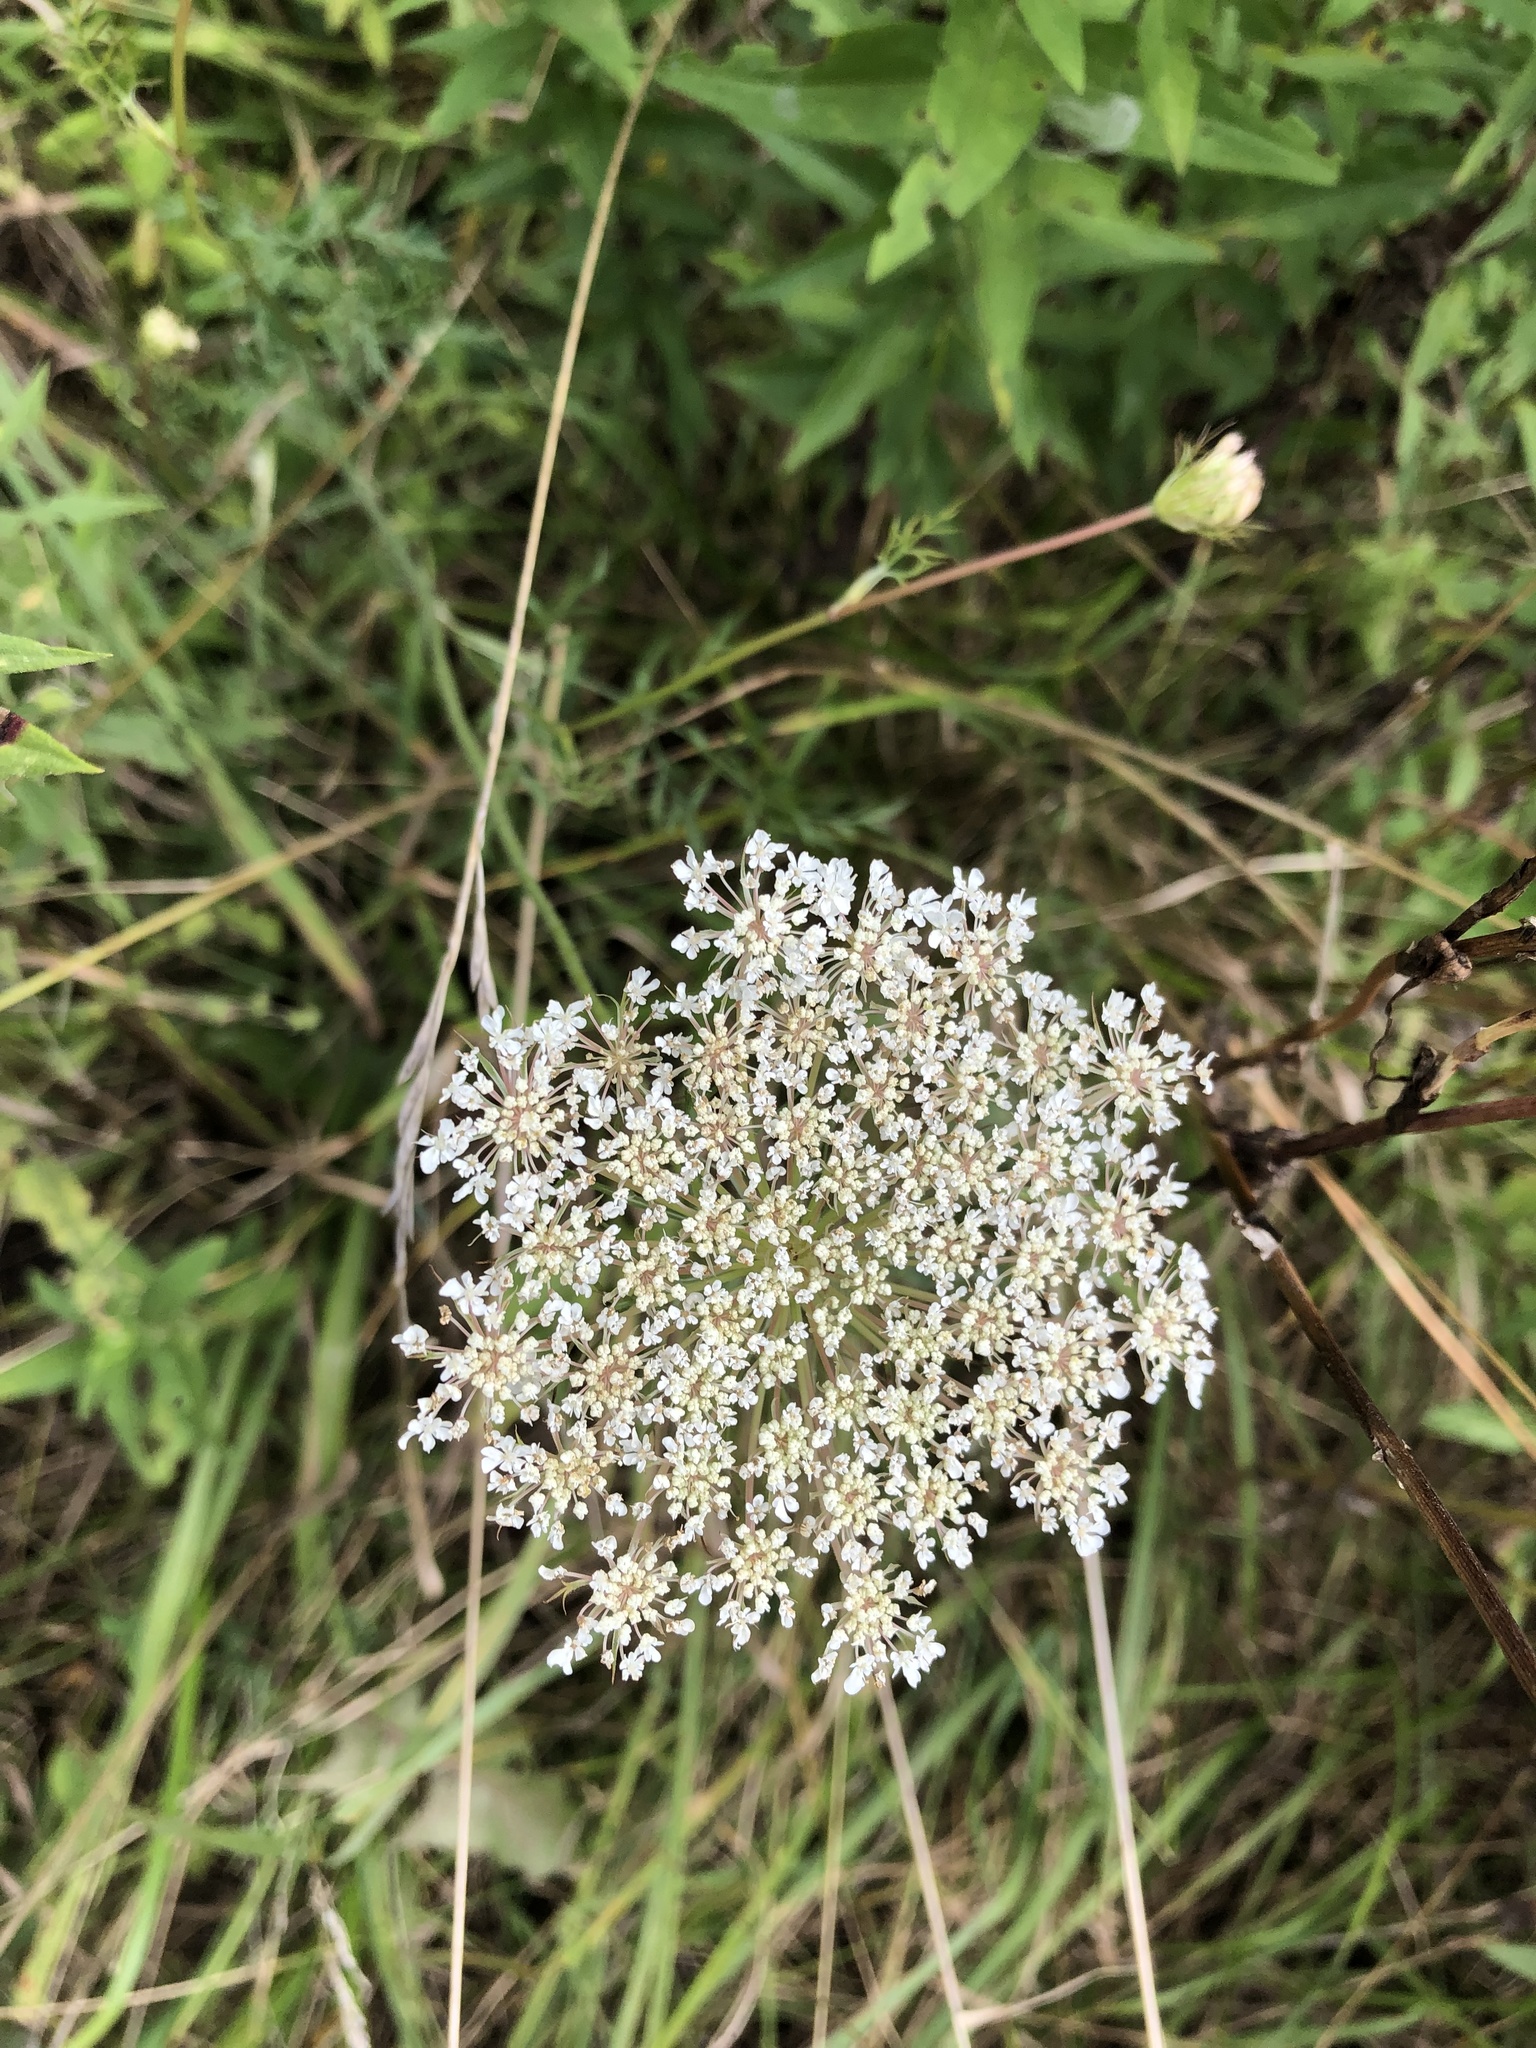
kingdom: Plantae
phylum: Tracheophyta
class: Magnoliopsida
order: Apiales
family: Apiaceae
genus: Daucus
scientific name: Daucus carota
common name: Wild carrot
